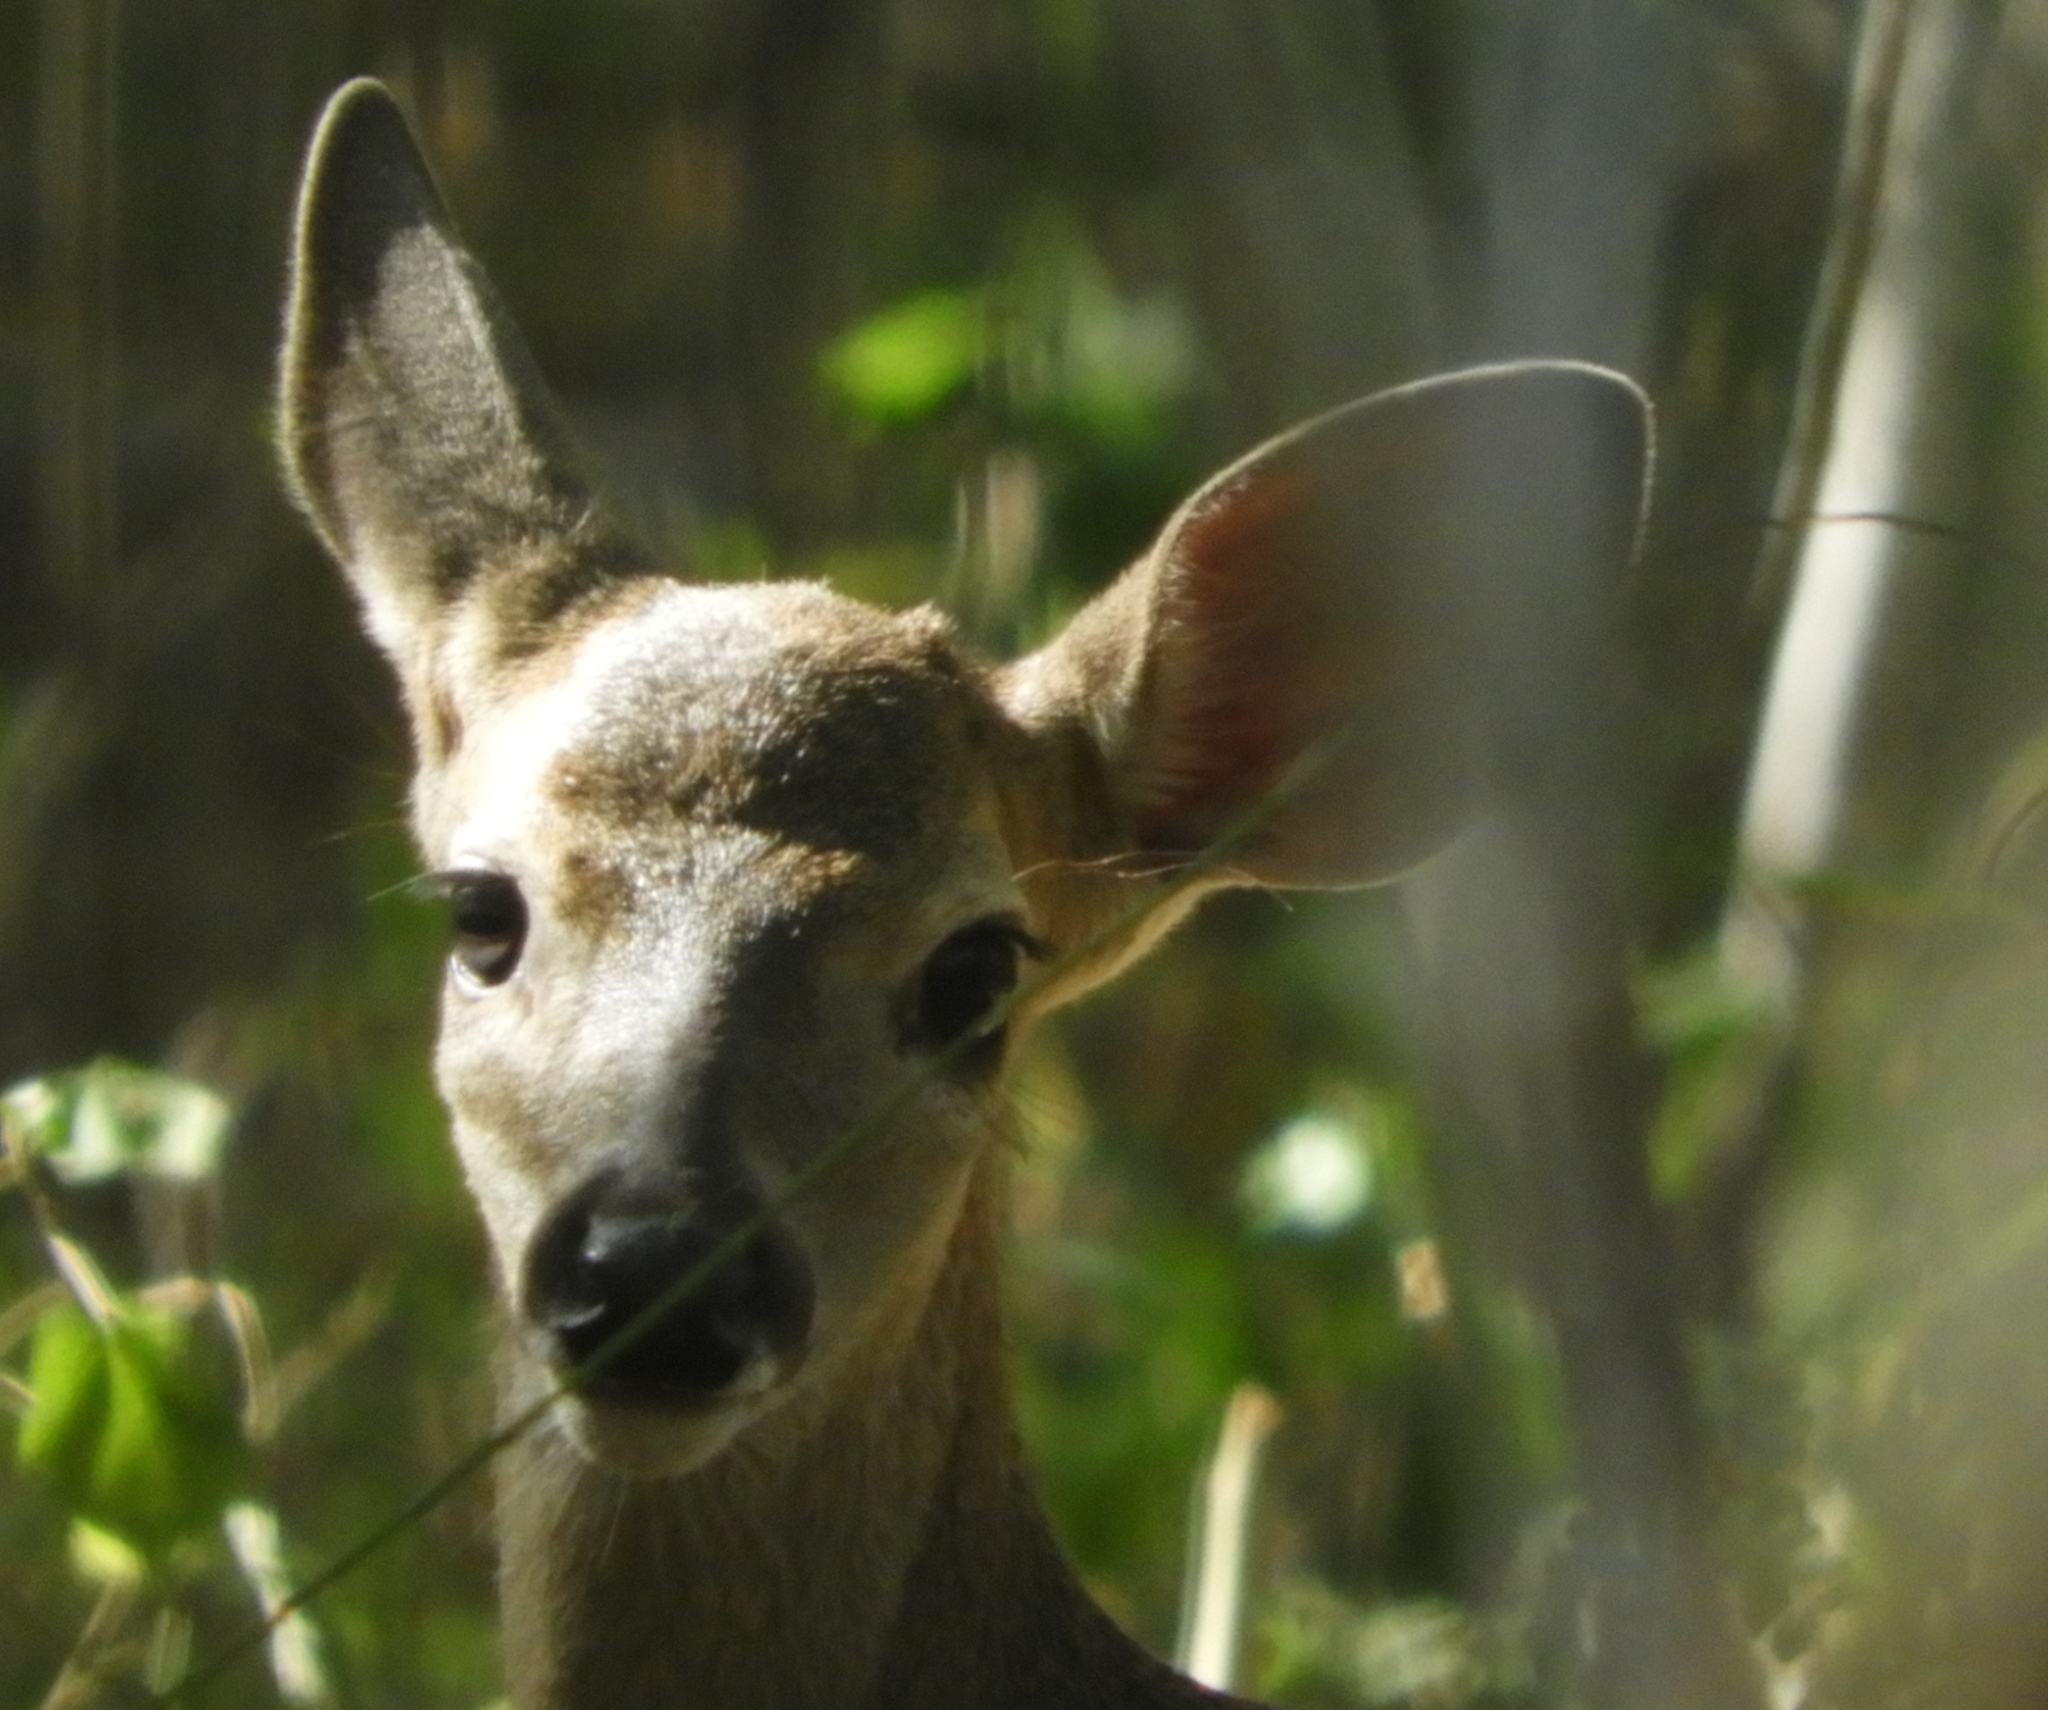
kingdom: Animalia
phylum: Chordata
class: Mammalia
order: Artiodactyla
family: Cervidae
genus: Odocoileus
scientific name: Odocoileus virginianus
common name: White-tailed deer
